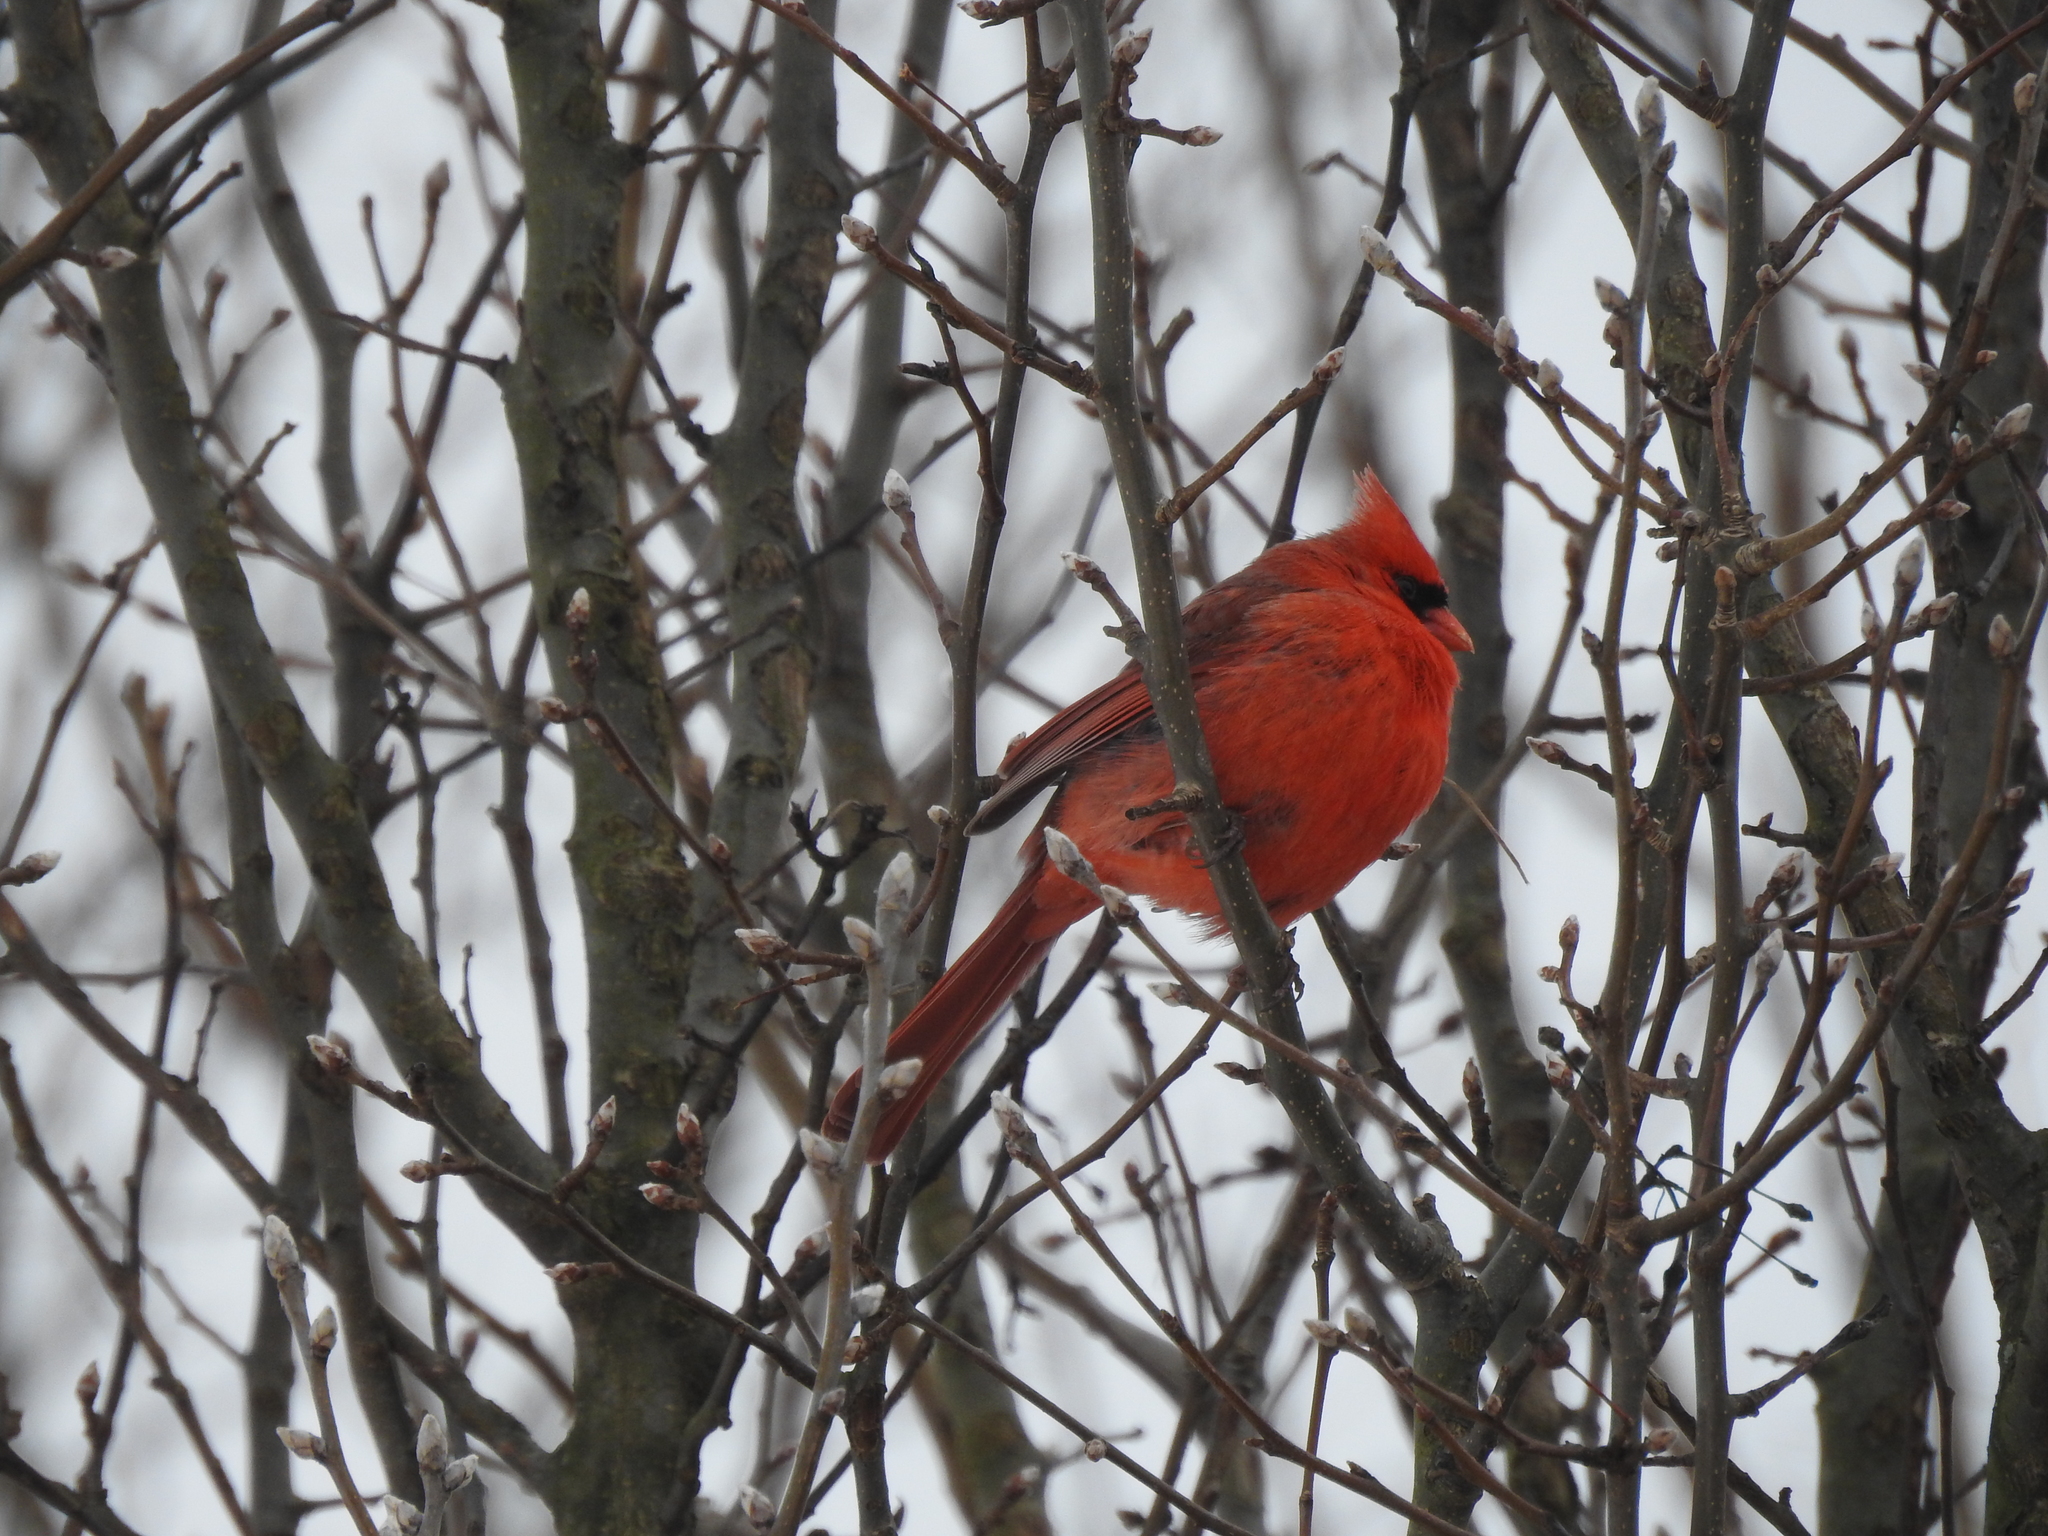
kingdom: Animalia
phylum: Chordata
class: Aves
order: Passeriformes
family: Cardinalidae
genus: Cardinalis
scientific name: Cardinalis cardinalis
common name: Northern cardinal
